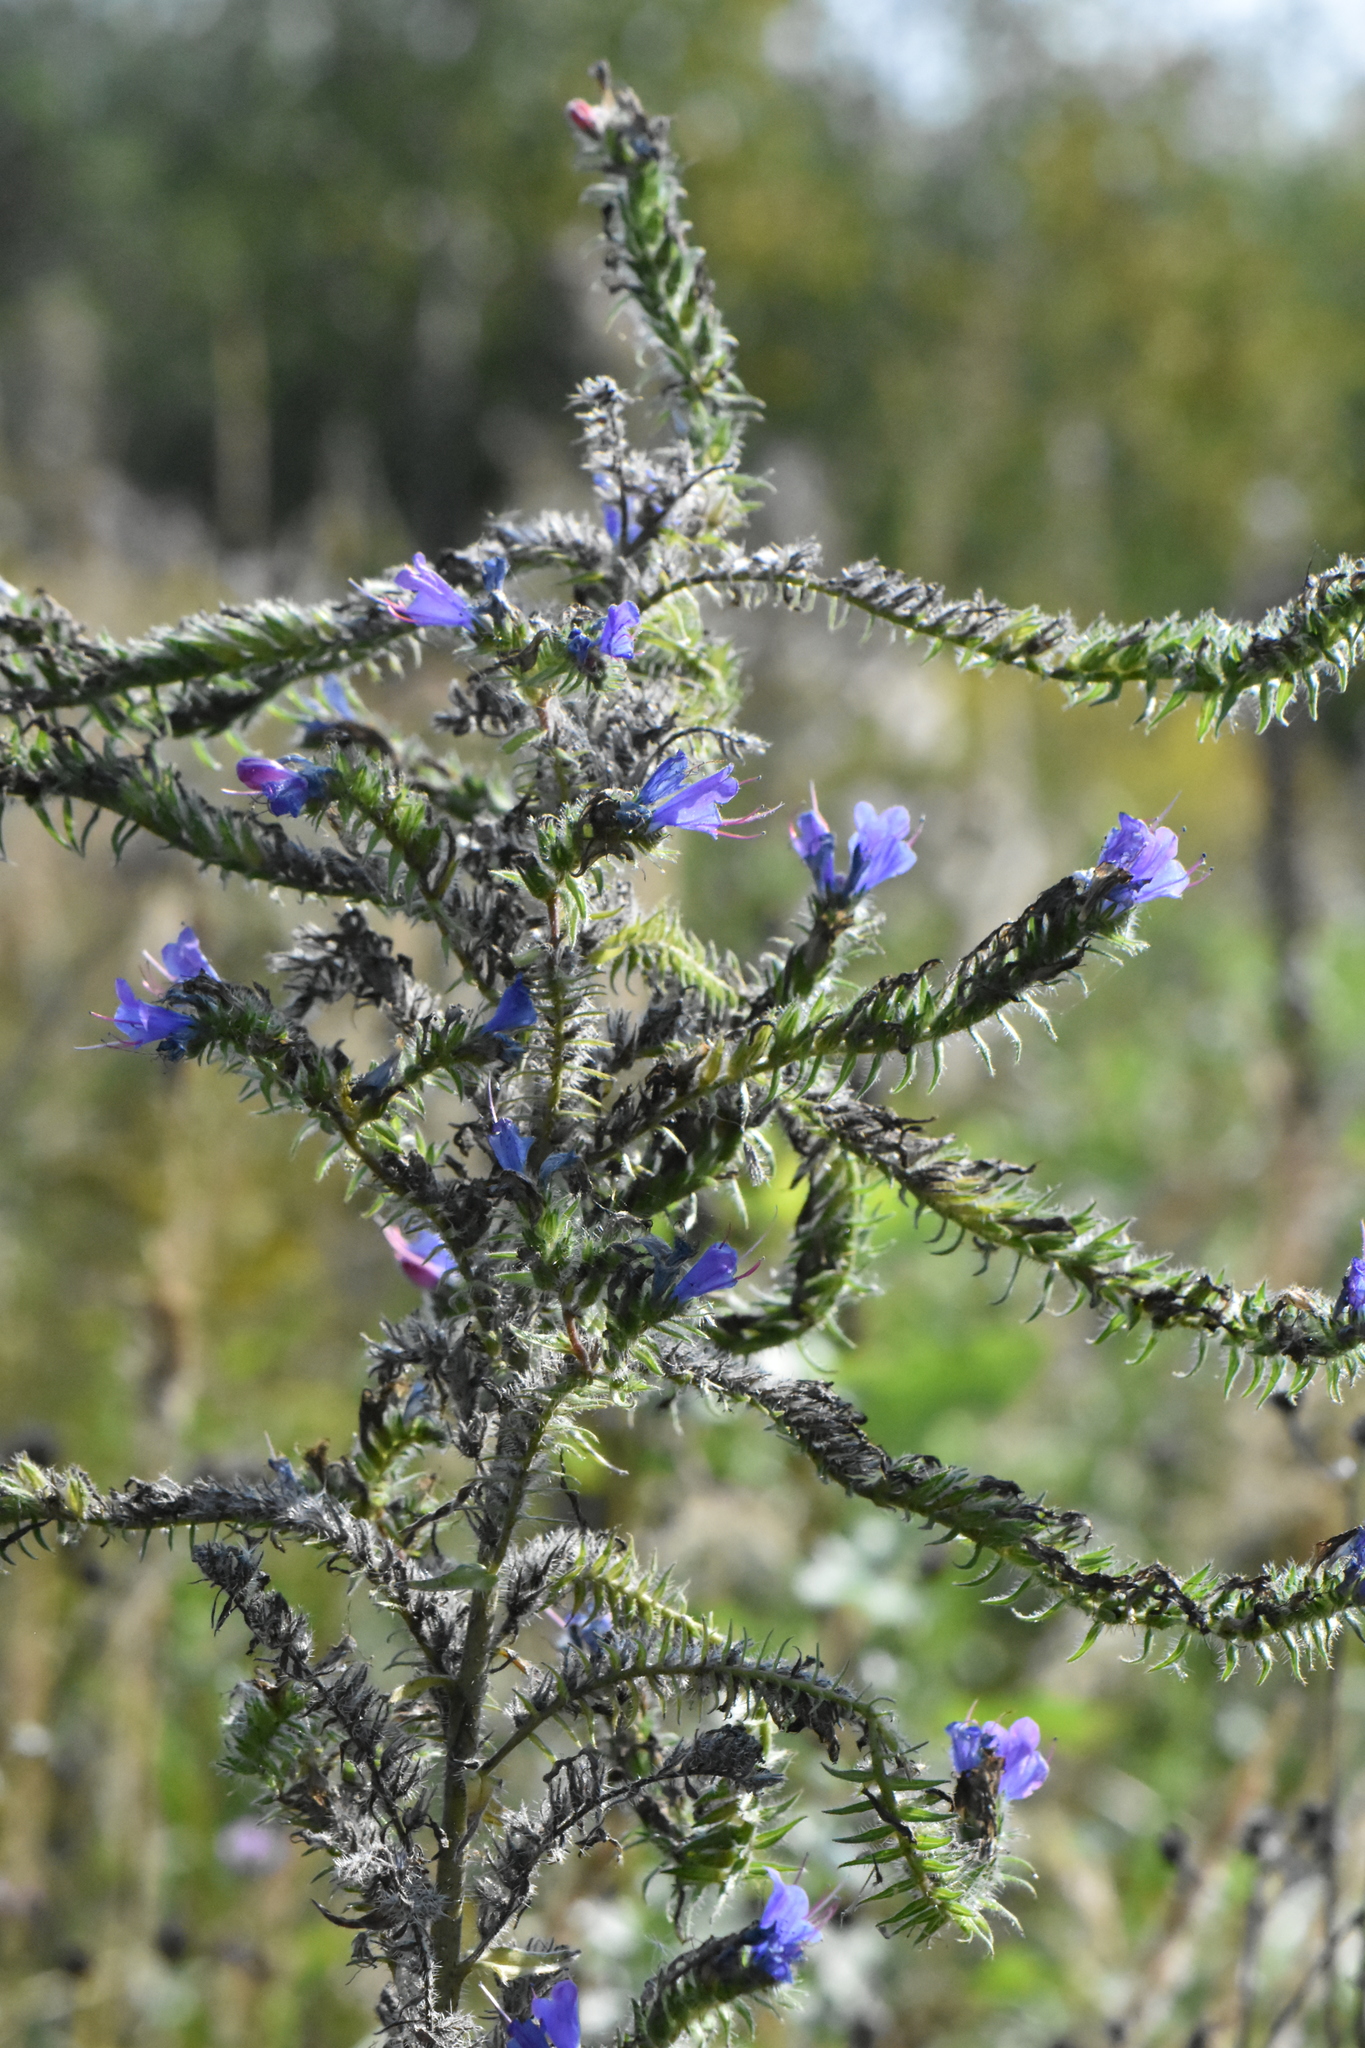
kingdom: Plantae
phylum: Tracheophyta
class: Magnoliopsida
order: Boraginales
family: Boraginaceae
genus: Echium
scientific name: Echium vulgare
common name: Common viper's bugloss
